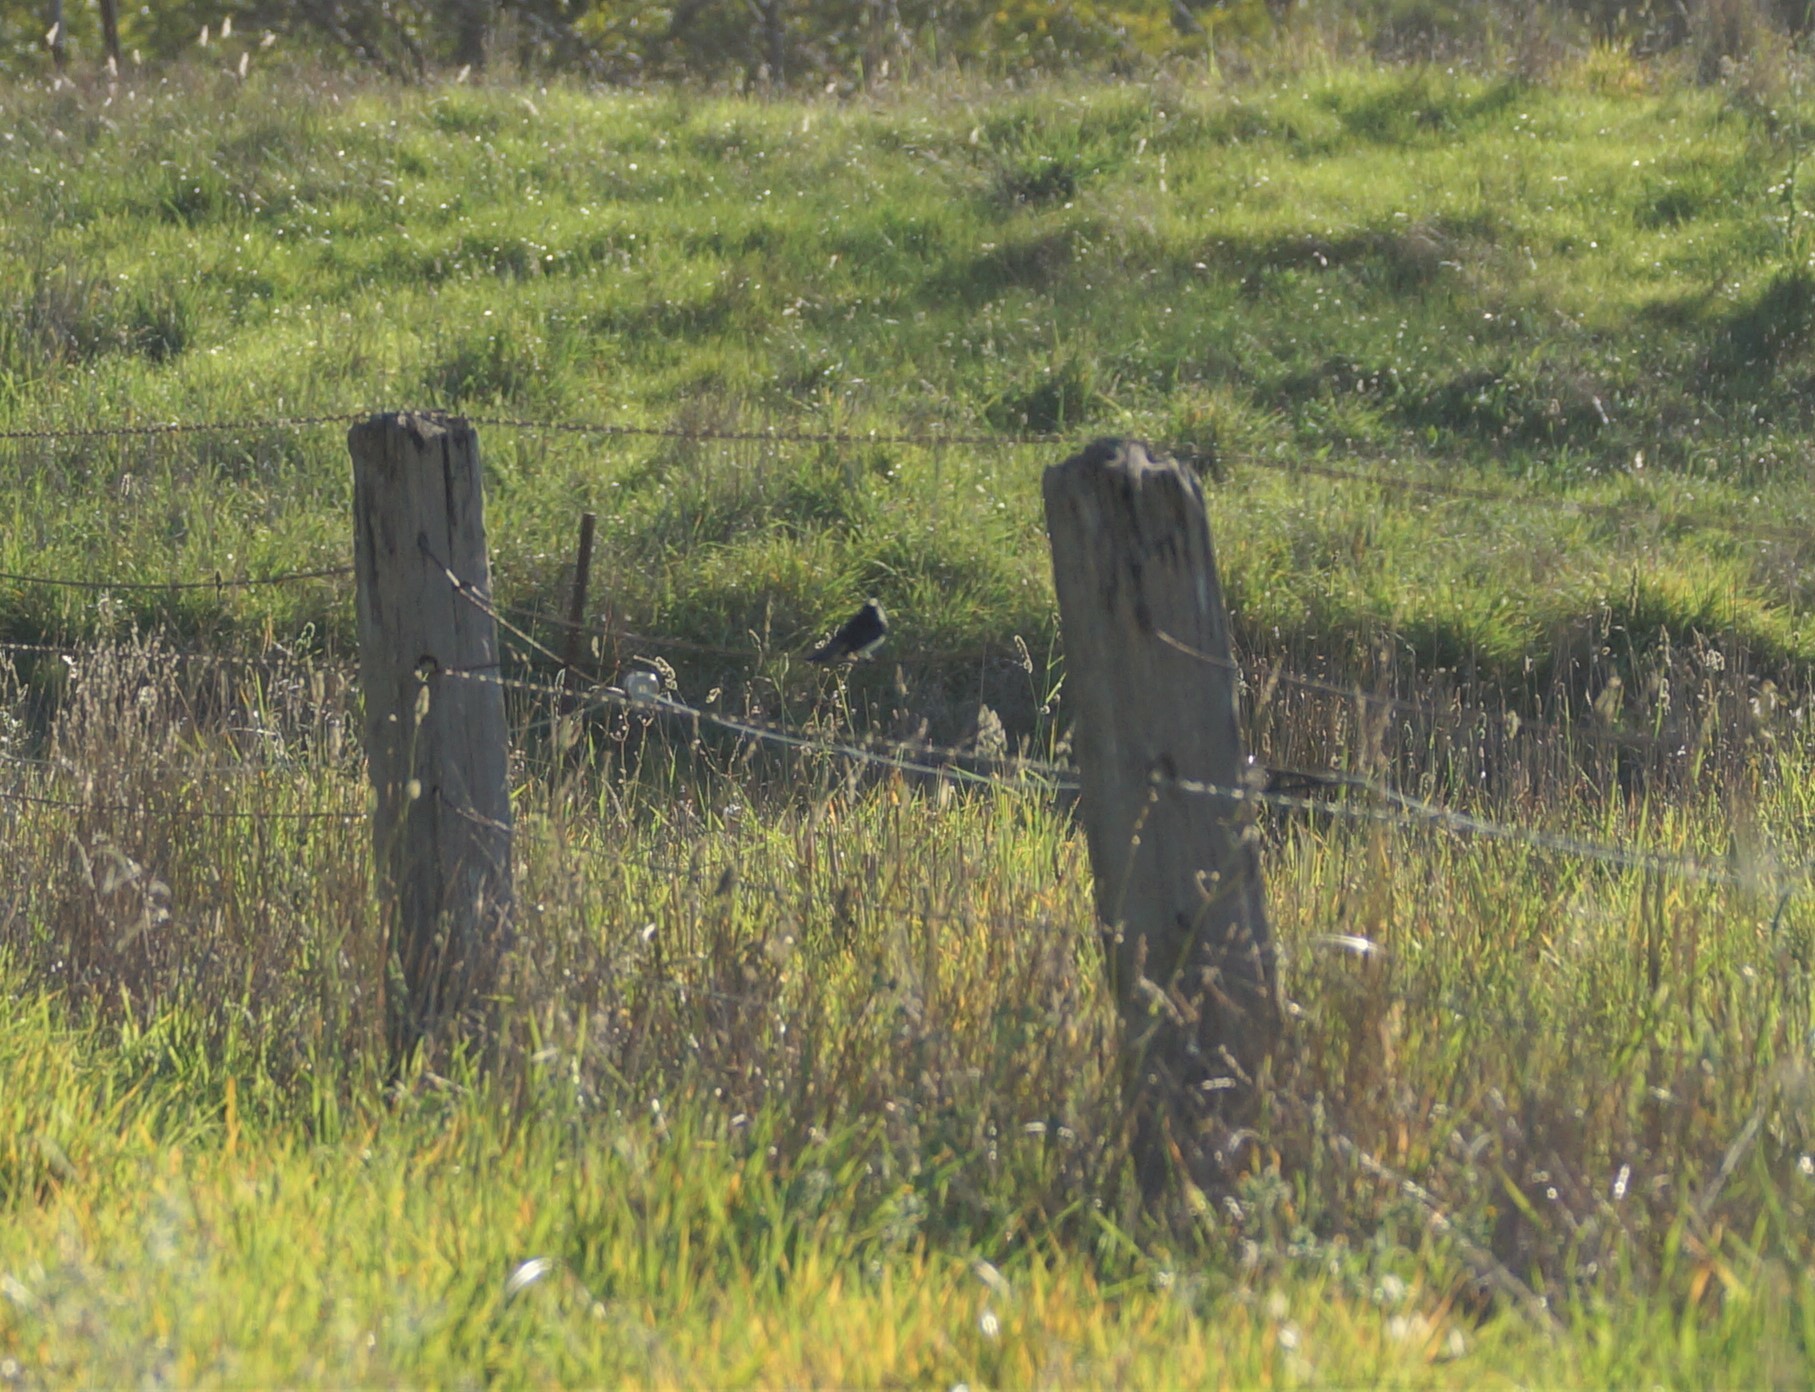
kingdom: Animalia
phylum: Chordata
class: Aves
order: Passeriformes
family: Rhipiduridae
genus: Rhipidura
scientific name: Rhipidura leucophrys
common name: Willie wagtail
